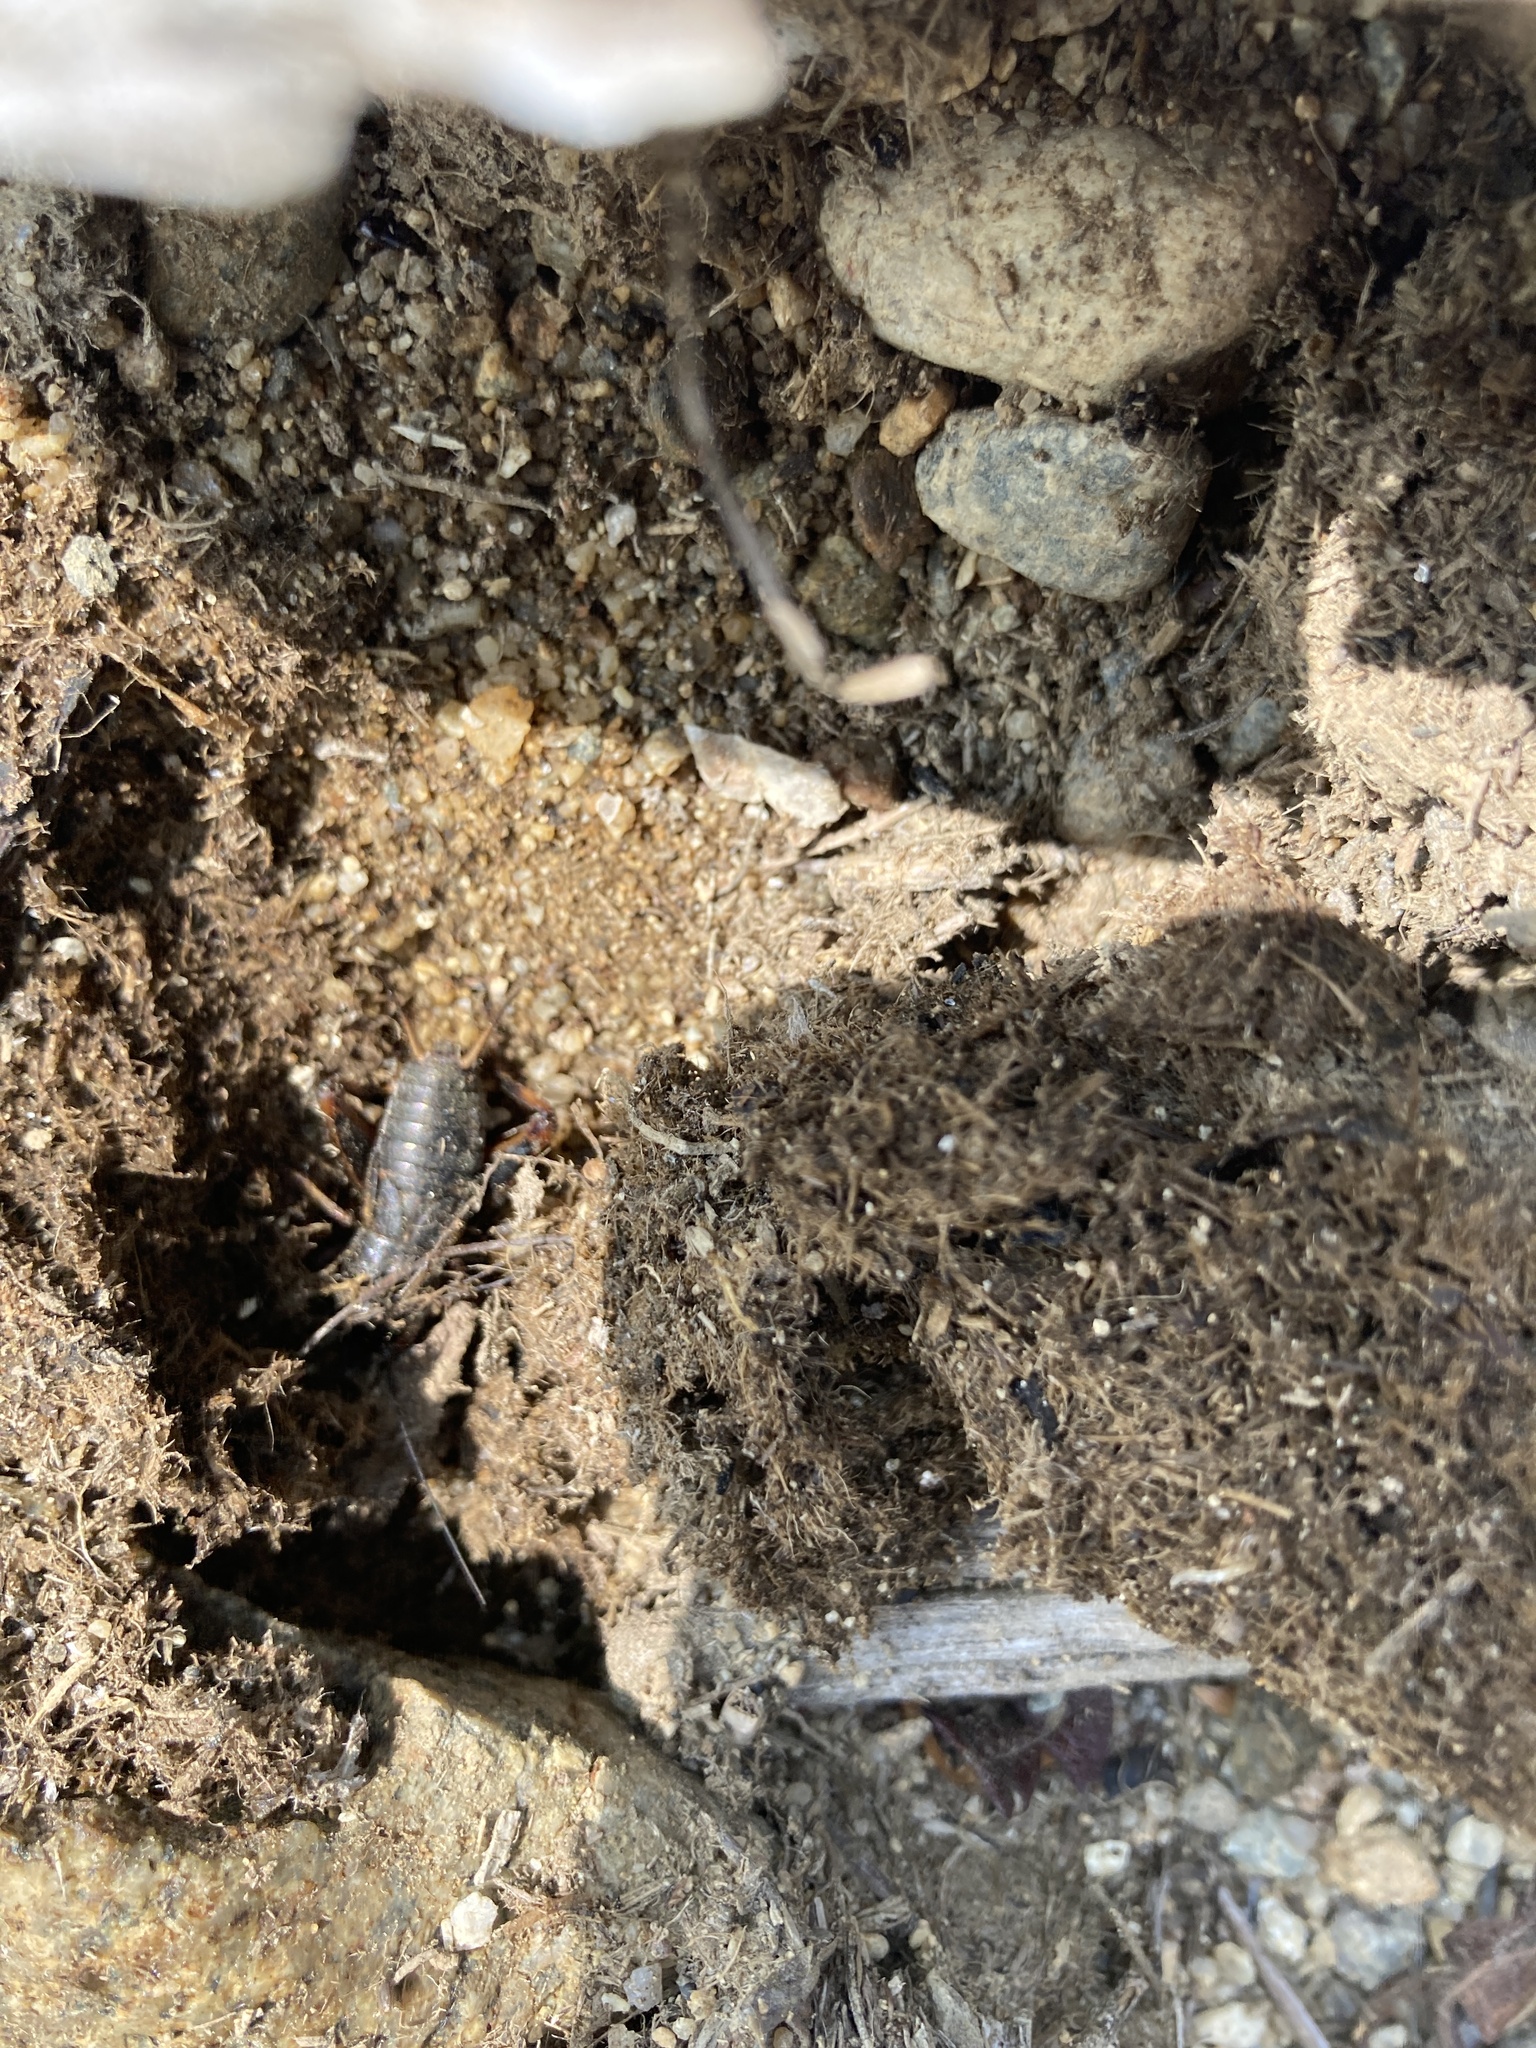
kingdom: Animalia
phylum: Arthropoda
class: Insecta
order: Orthoptera
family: Gryllidae
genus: Gryllus
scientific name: Gryllus veletis
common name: Spring field cricket
